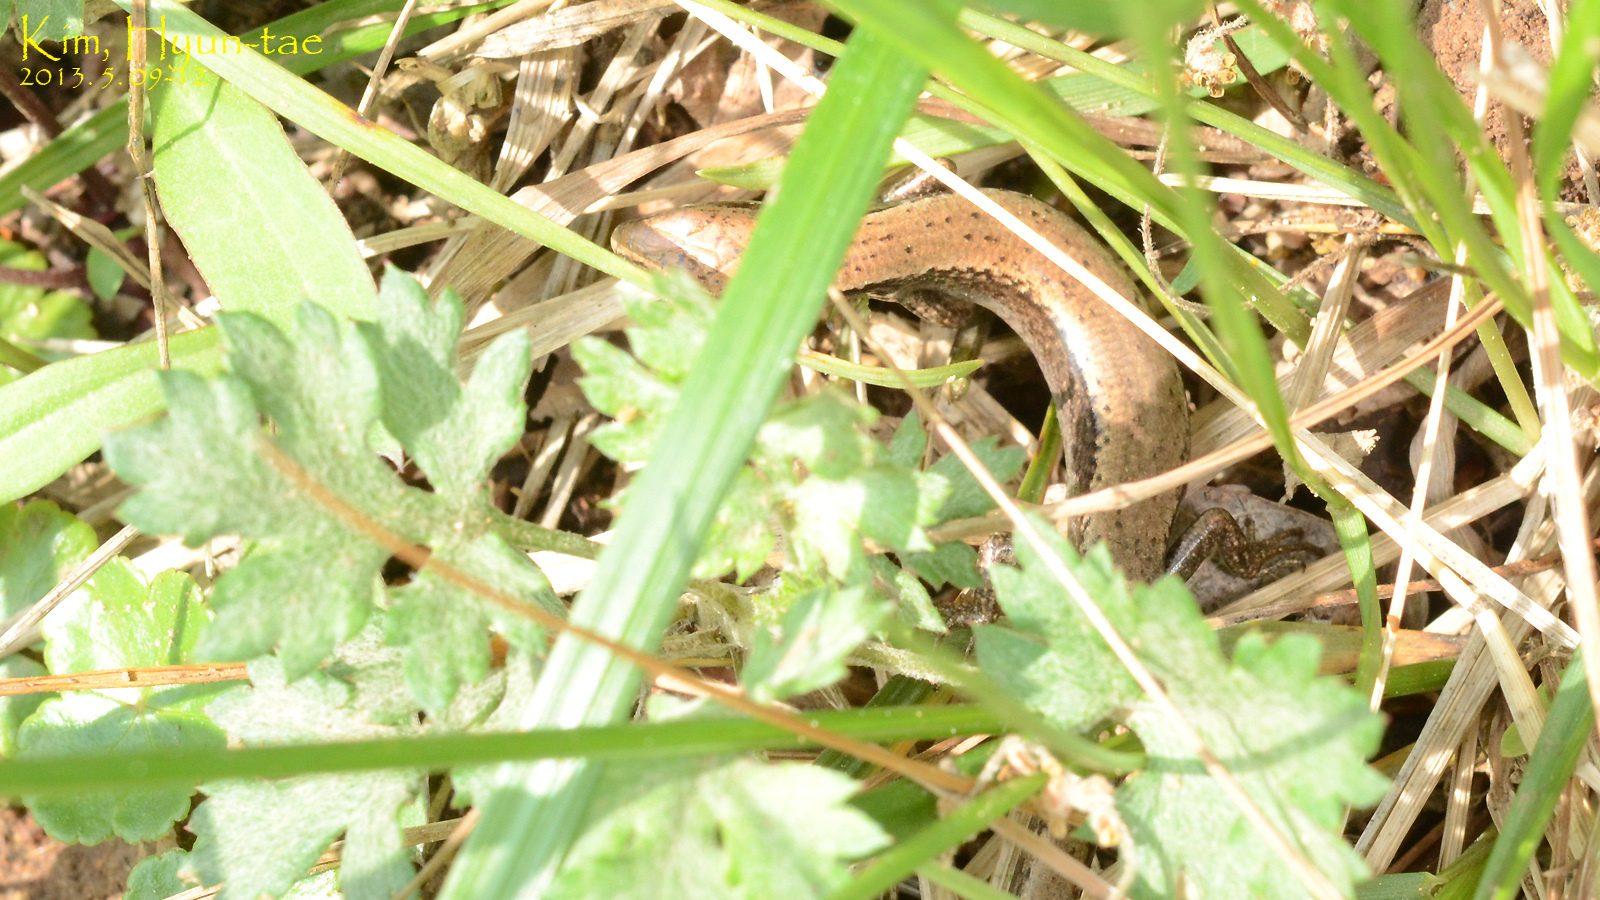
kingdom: Animalia
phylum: Chordata
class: Squamata
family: Scincidae
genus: Scincella
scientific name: Scincella vandenburghi
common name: Tsushima smooth skink
